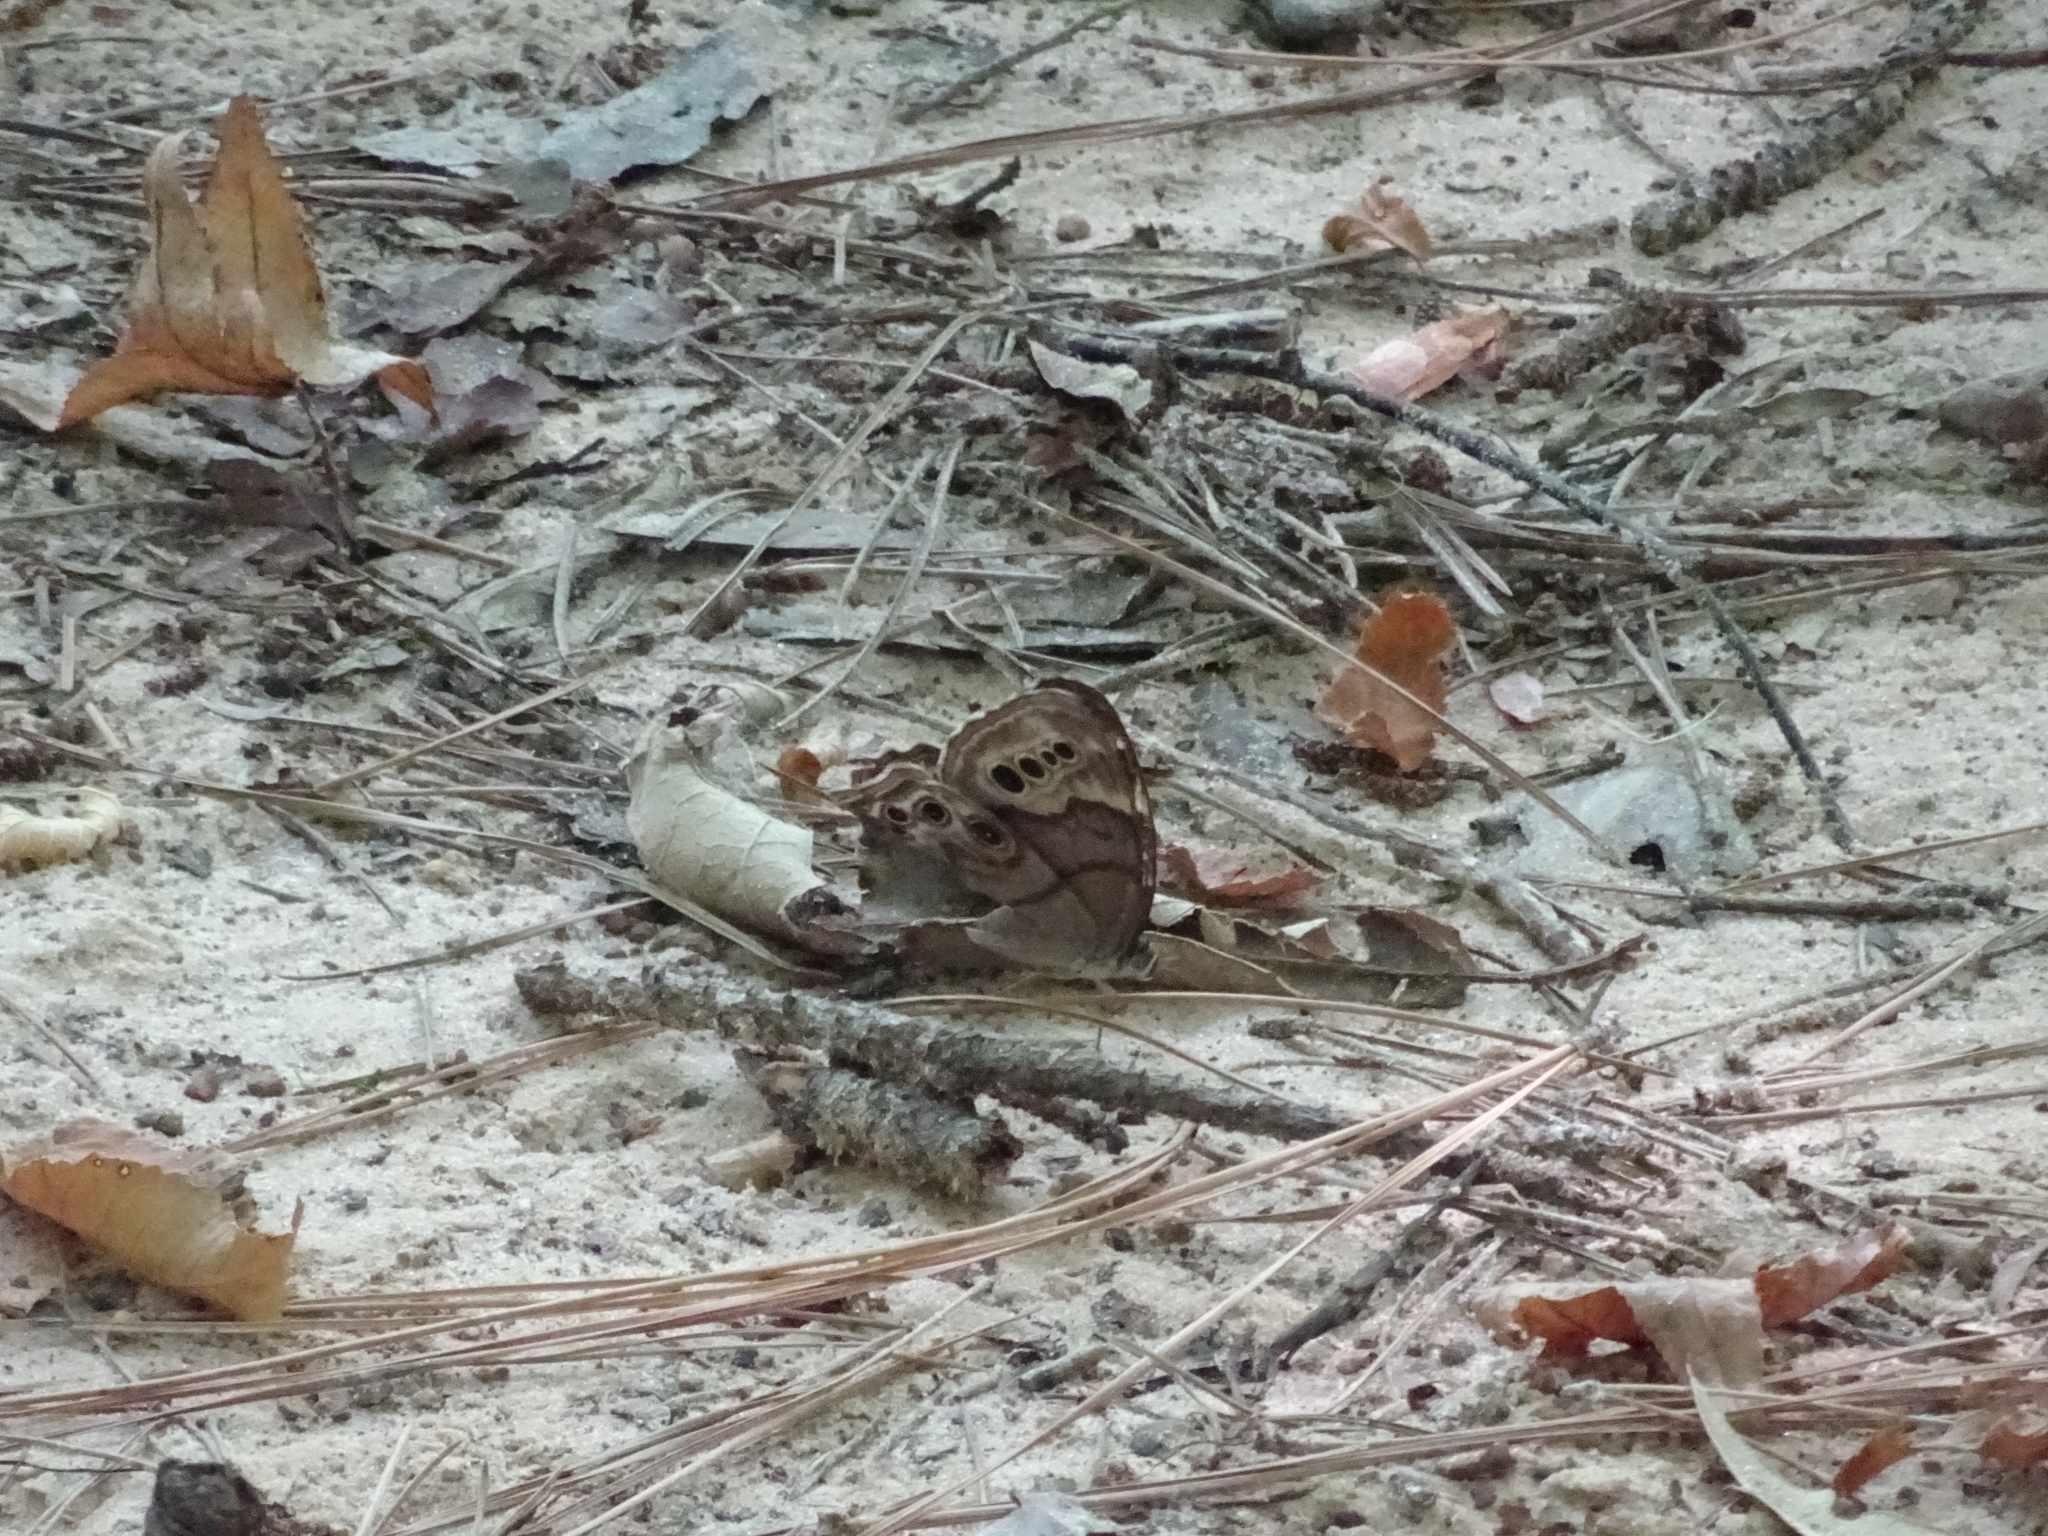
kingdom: Animalia
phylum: Arthropoda
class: Insecta
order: Lepidoptera
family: Nymphalidae
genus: Lethe
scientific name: Lethe anthedon
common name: Northern pearly-eye
